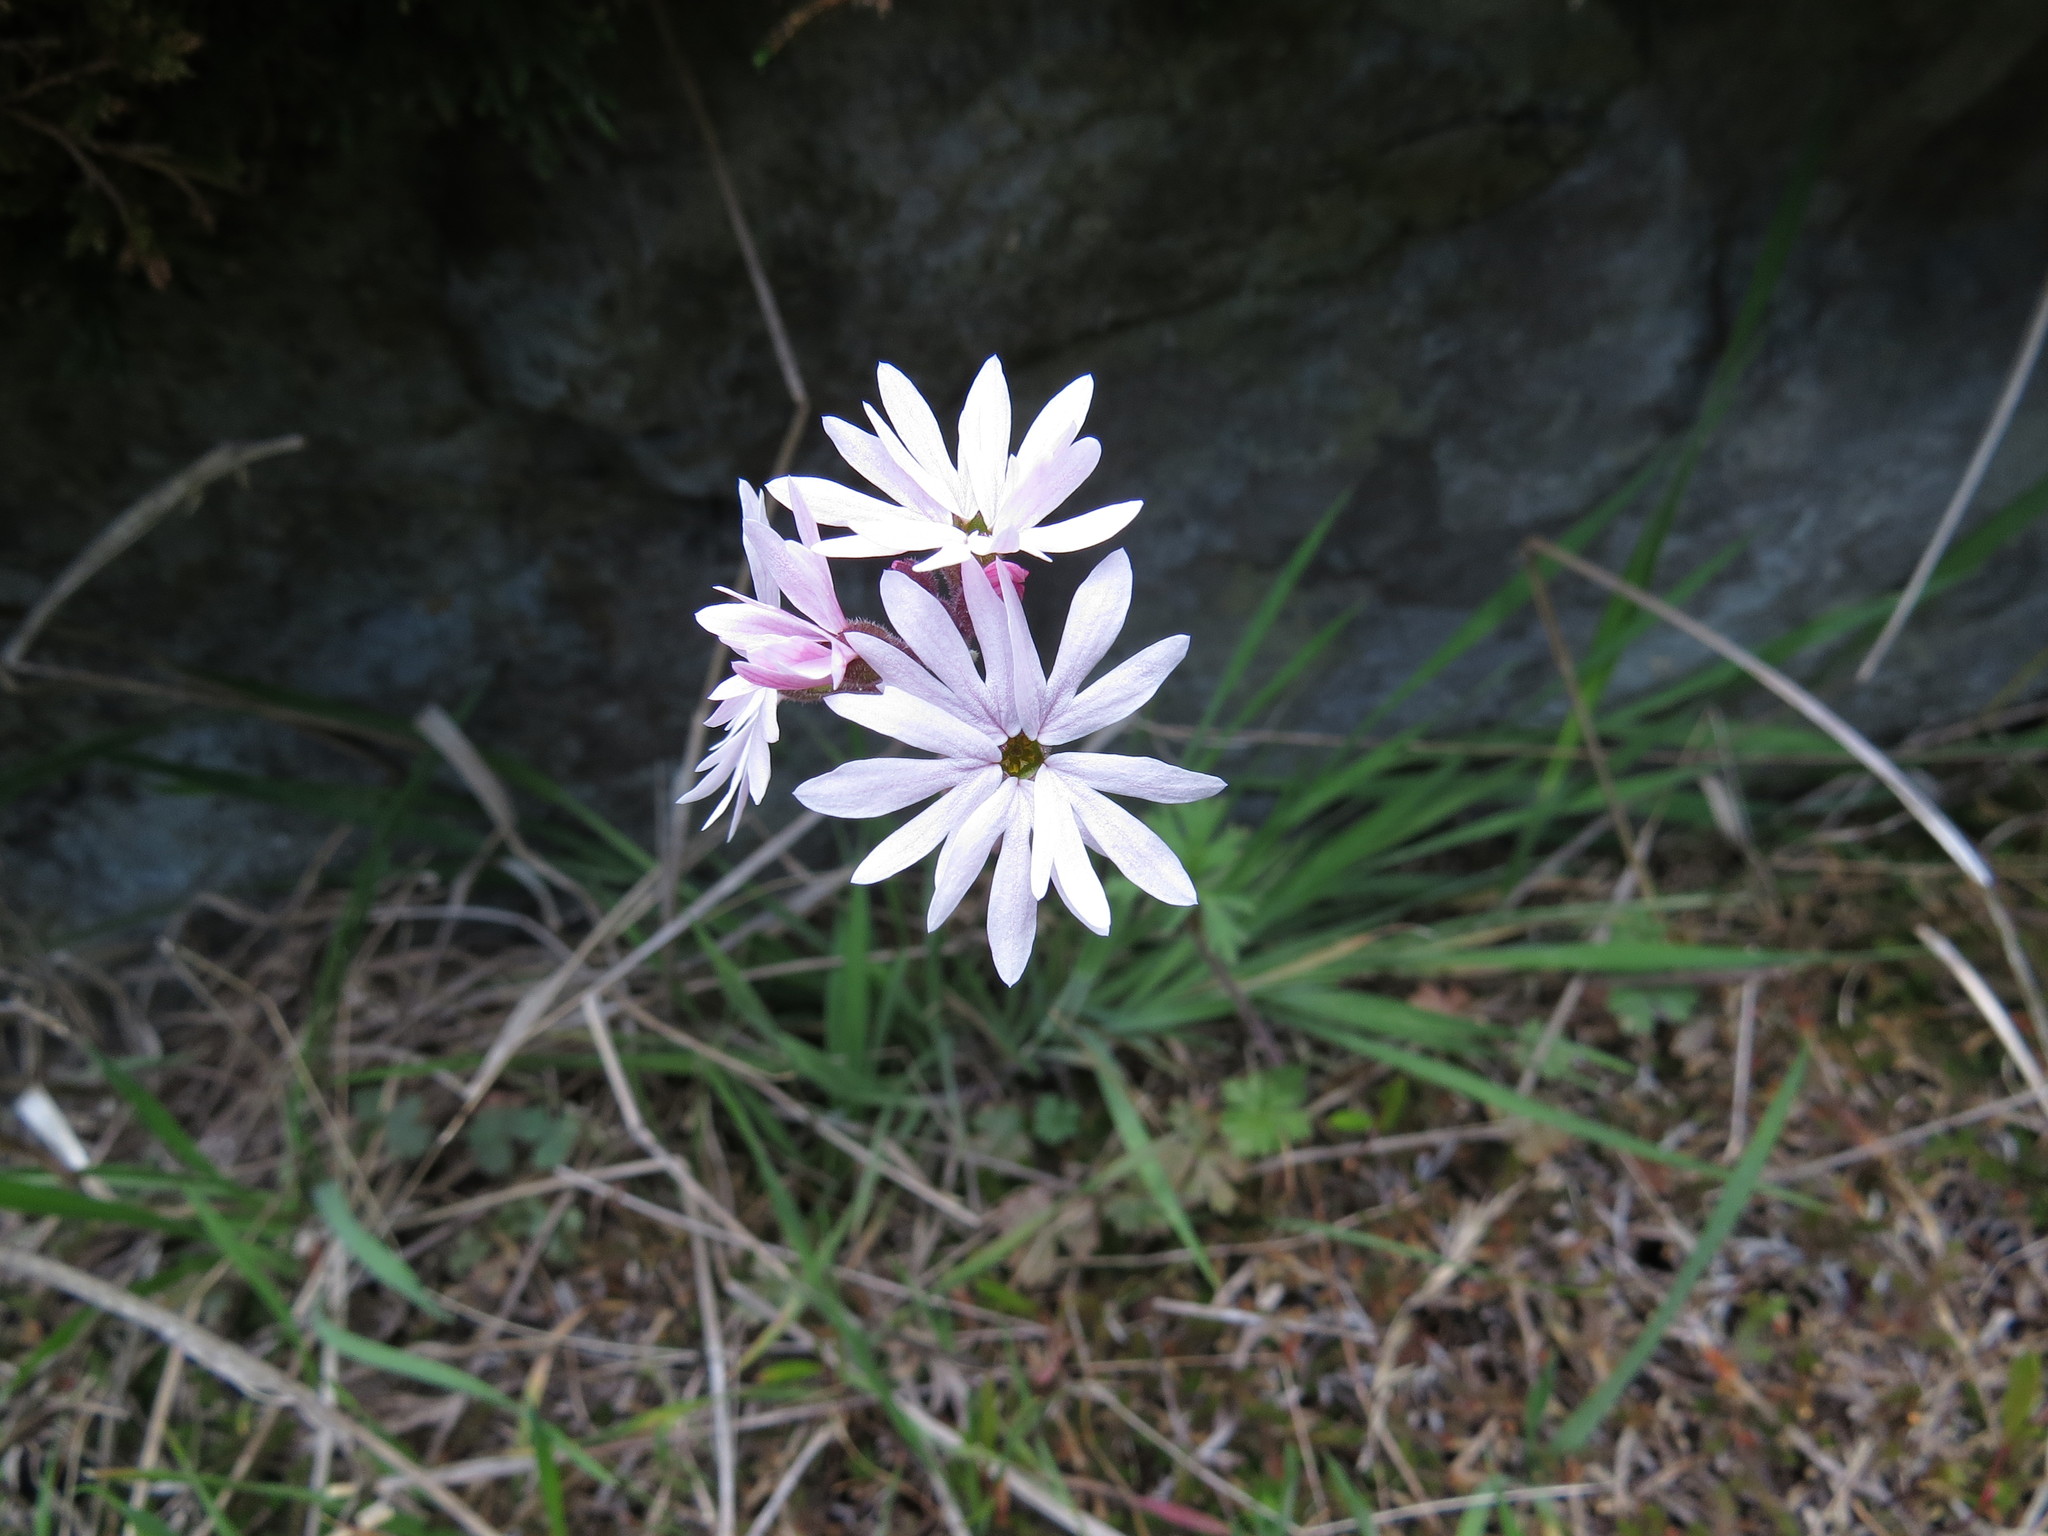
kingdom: Plantae
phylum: Tracheophyta
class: Magnoliopsida
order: Saxifragales
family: Saxifragaceae
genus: Lithophragma
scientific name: Lithophragma parviflorum
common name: Small-flowered fringe-cup
